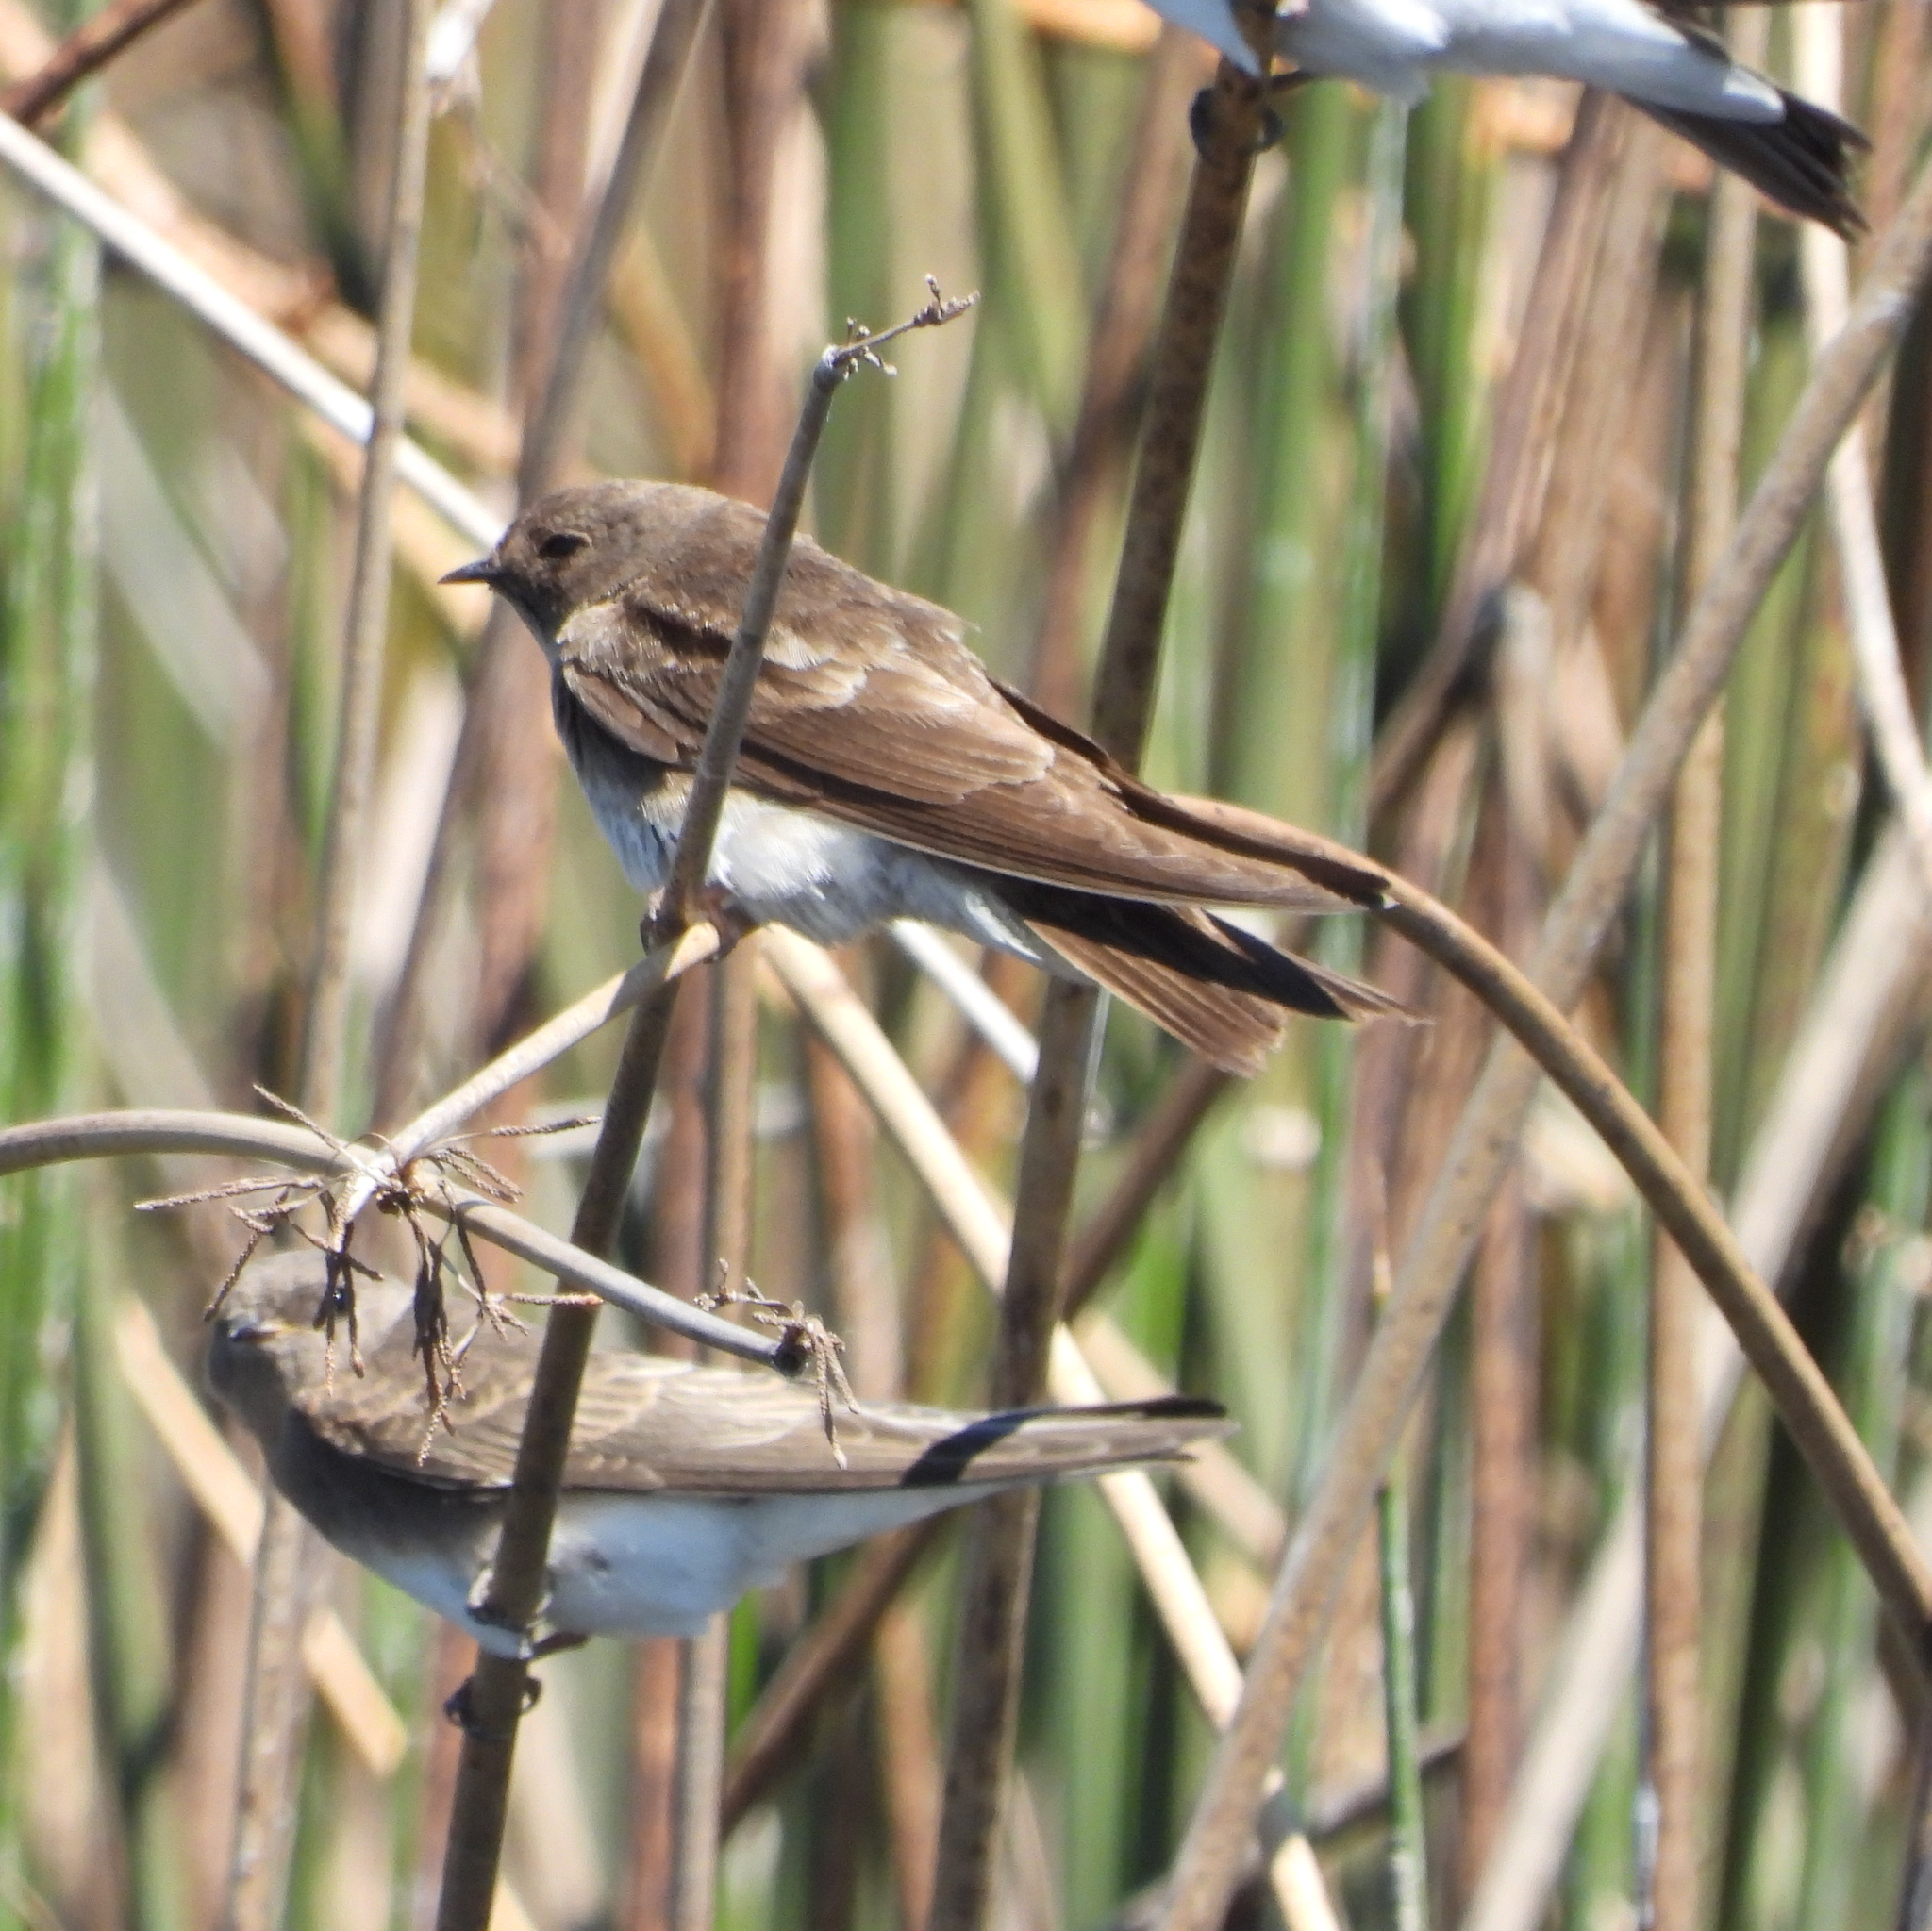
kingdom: Animalia
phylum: Chordata
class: Aves
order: Passeriformes
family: Hirundinidae
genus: Riparia
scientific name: Riparia paludicola
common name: Brown-throated martin
